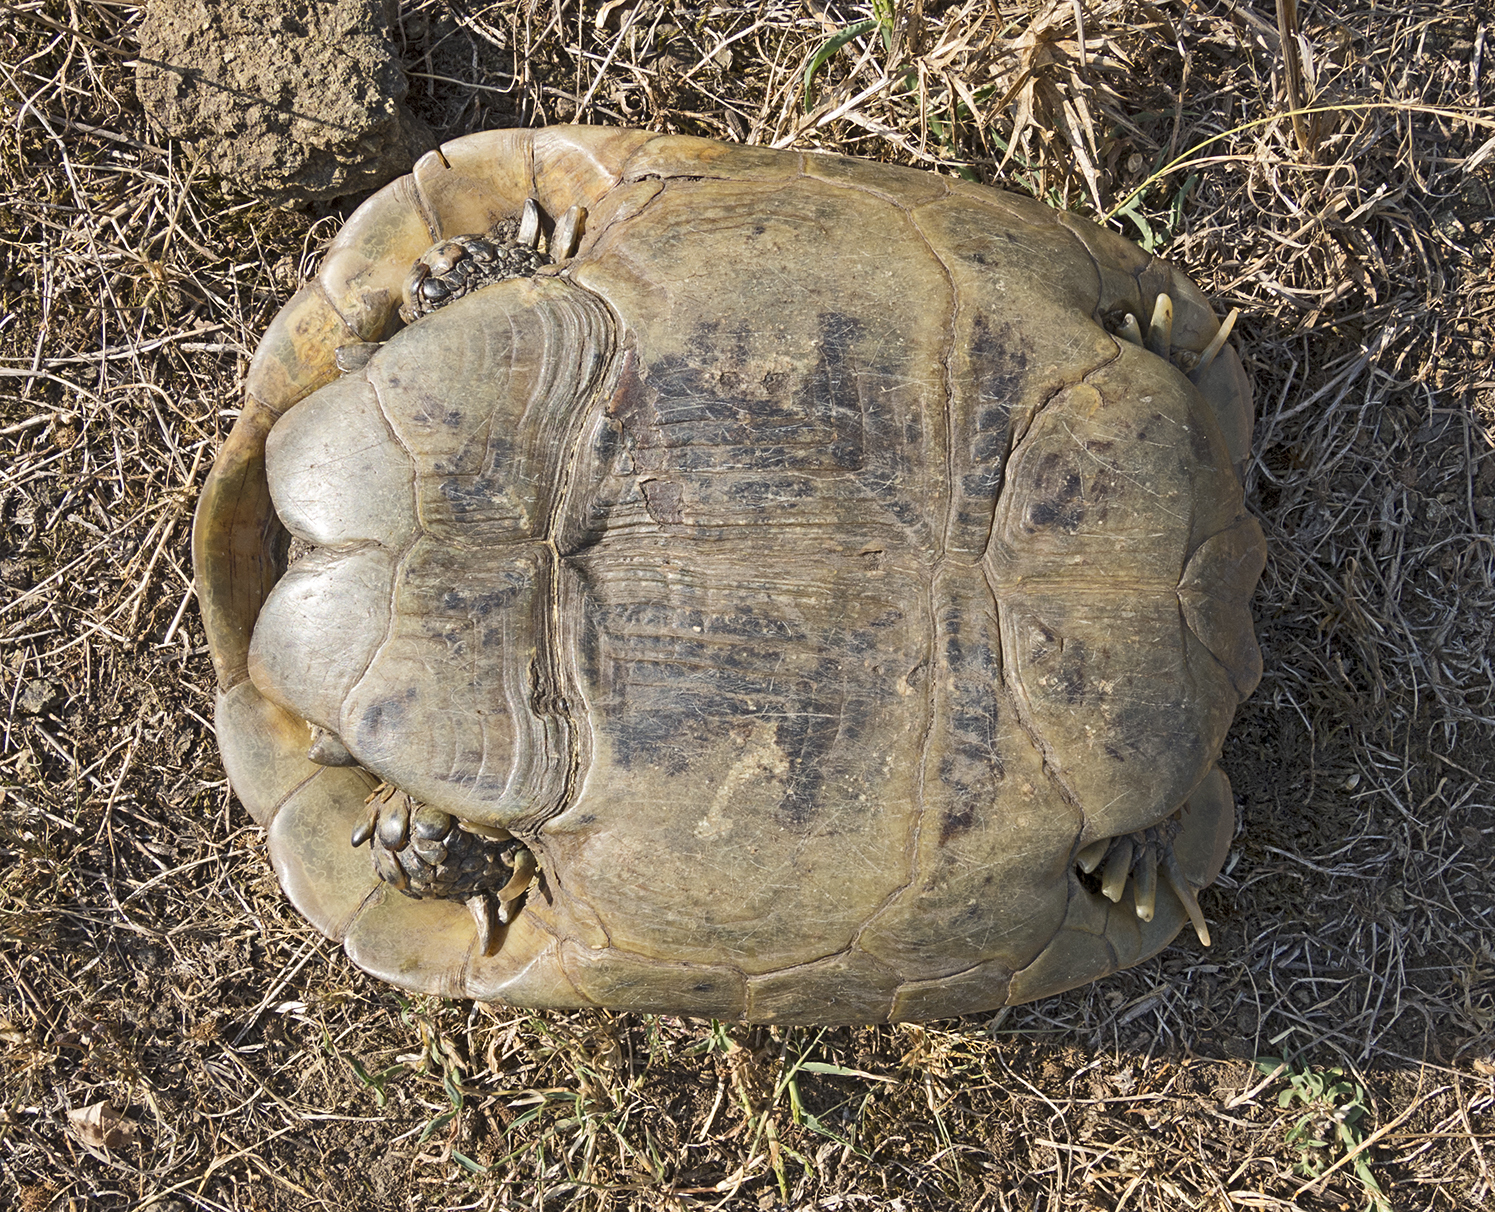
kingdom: Animalia
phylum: Chordata
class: Testudines
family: Testudinidae
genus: Testudo
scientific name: Testudo graeca
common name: Common tortoise
